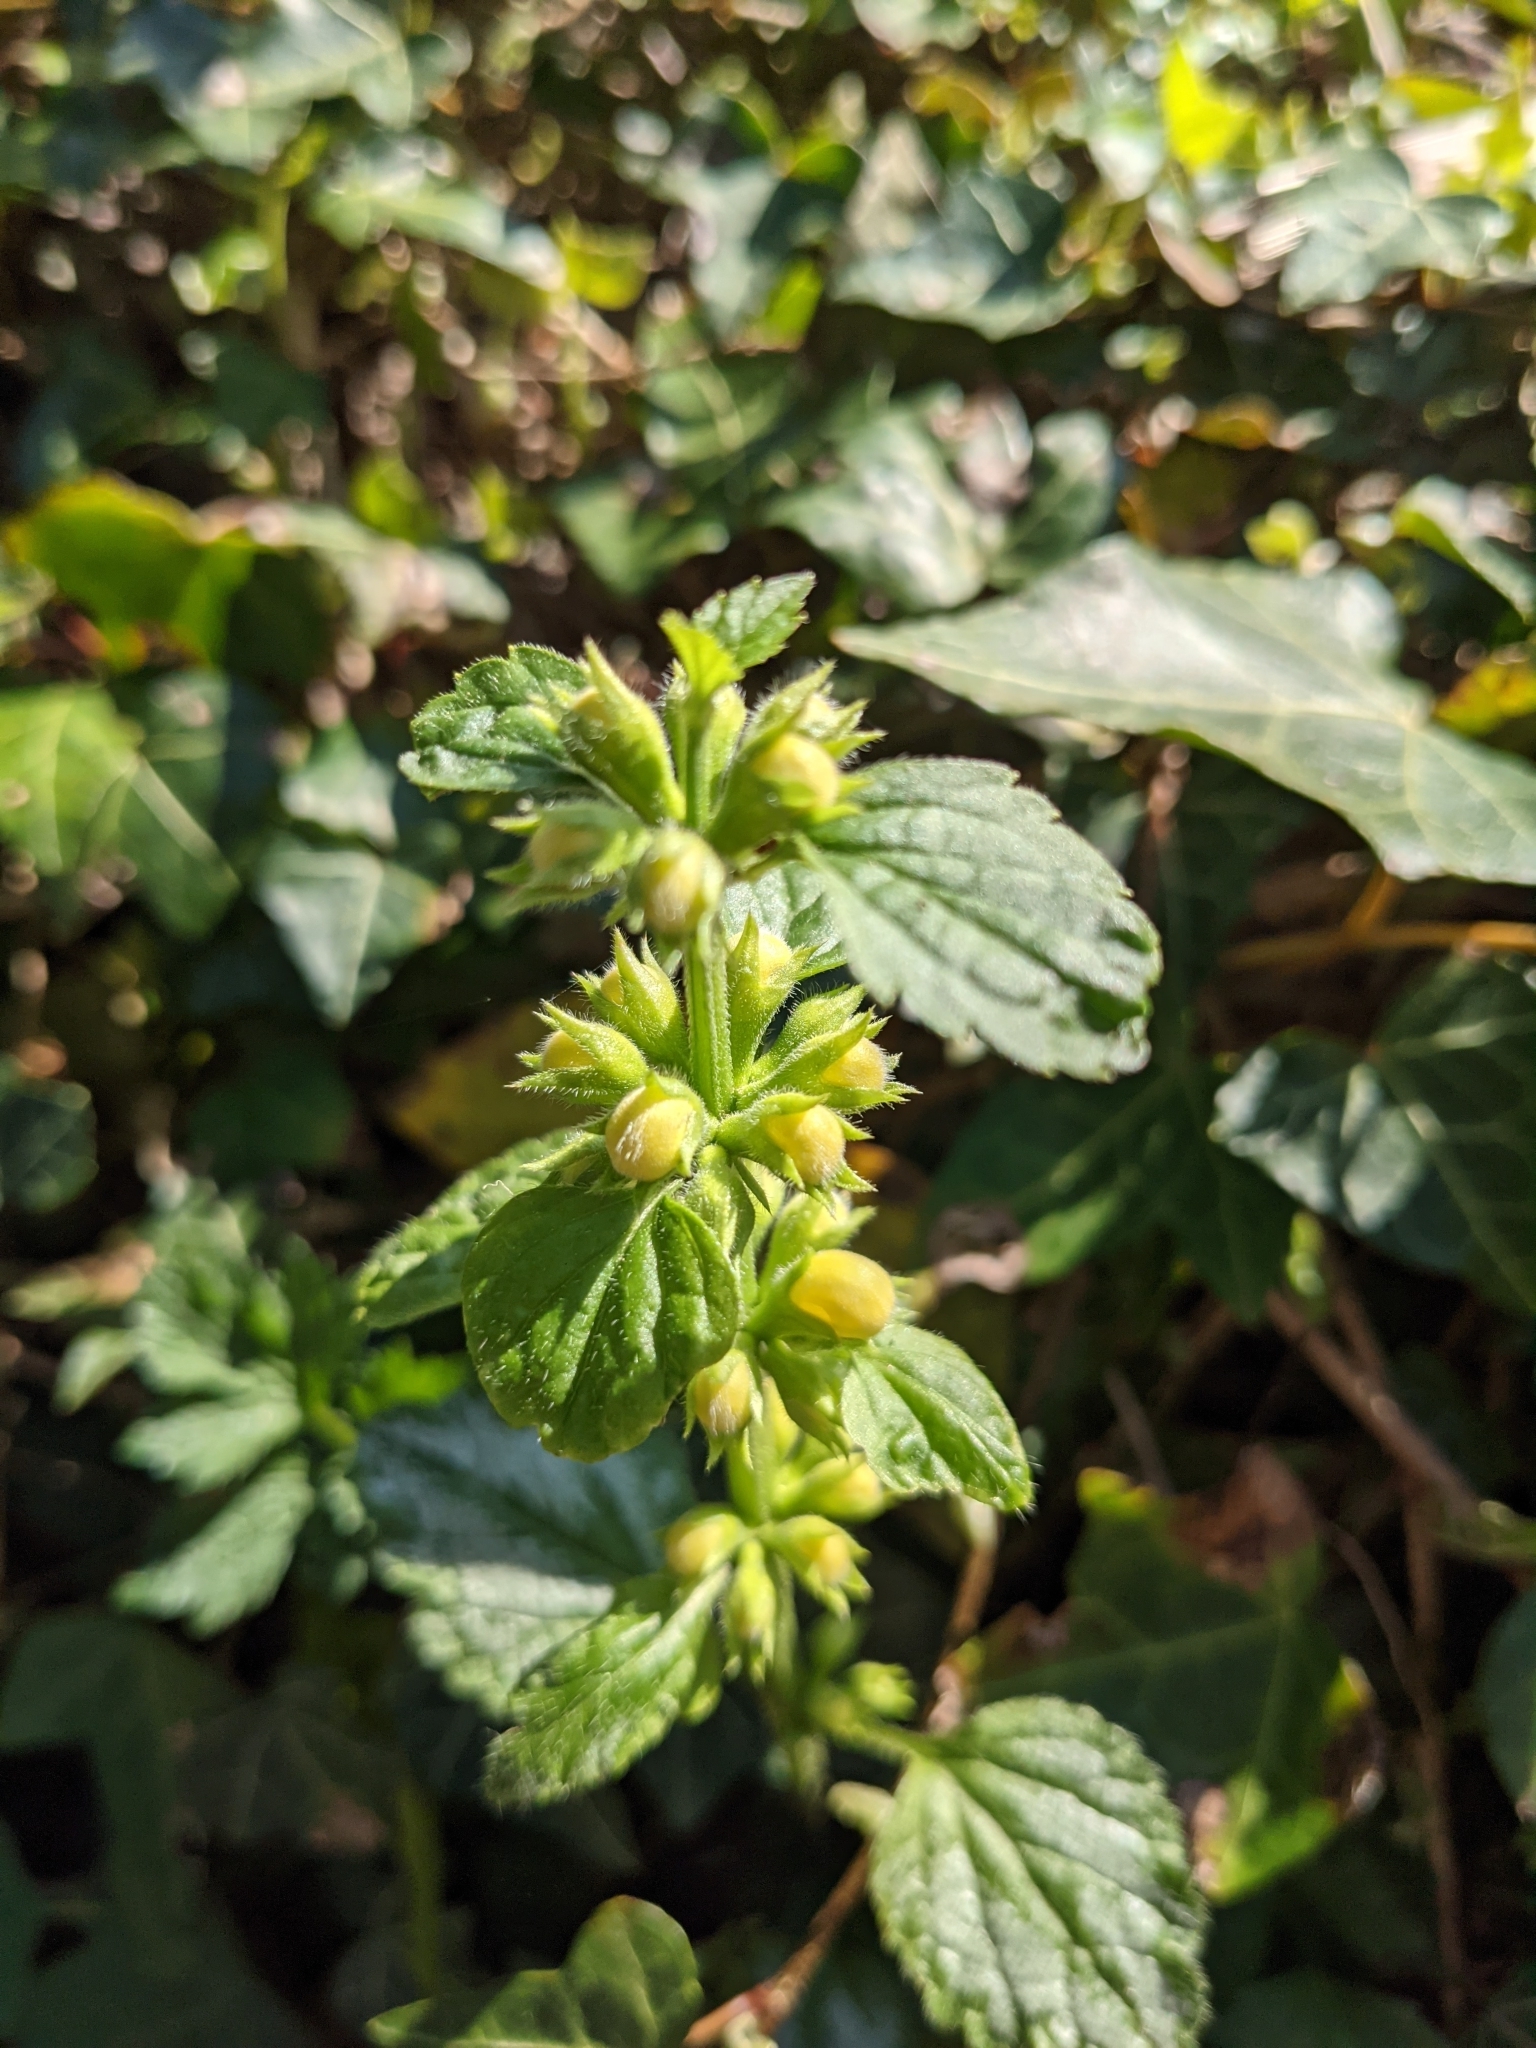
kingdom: Plantae
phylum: Tracheophyta
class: Magnoliopsida
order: Lamiales
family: Lamiaceae
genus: Lamium
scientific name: Lamium galeobdolon
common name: Yellow archangel
